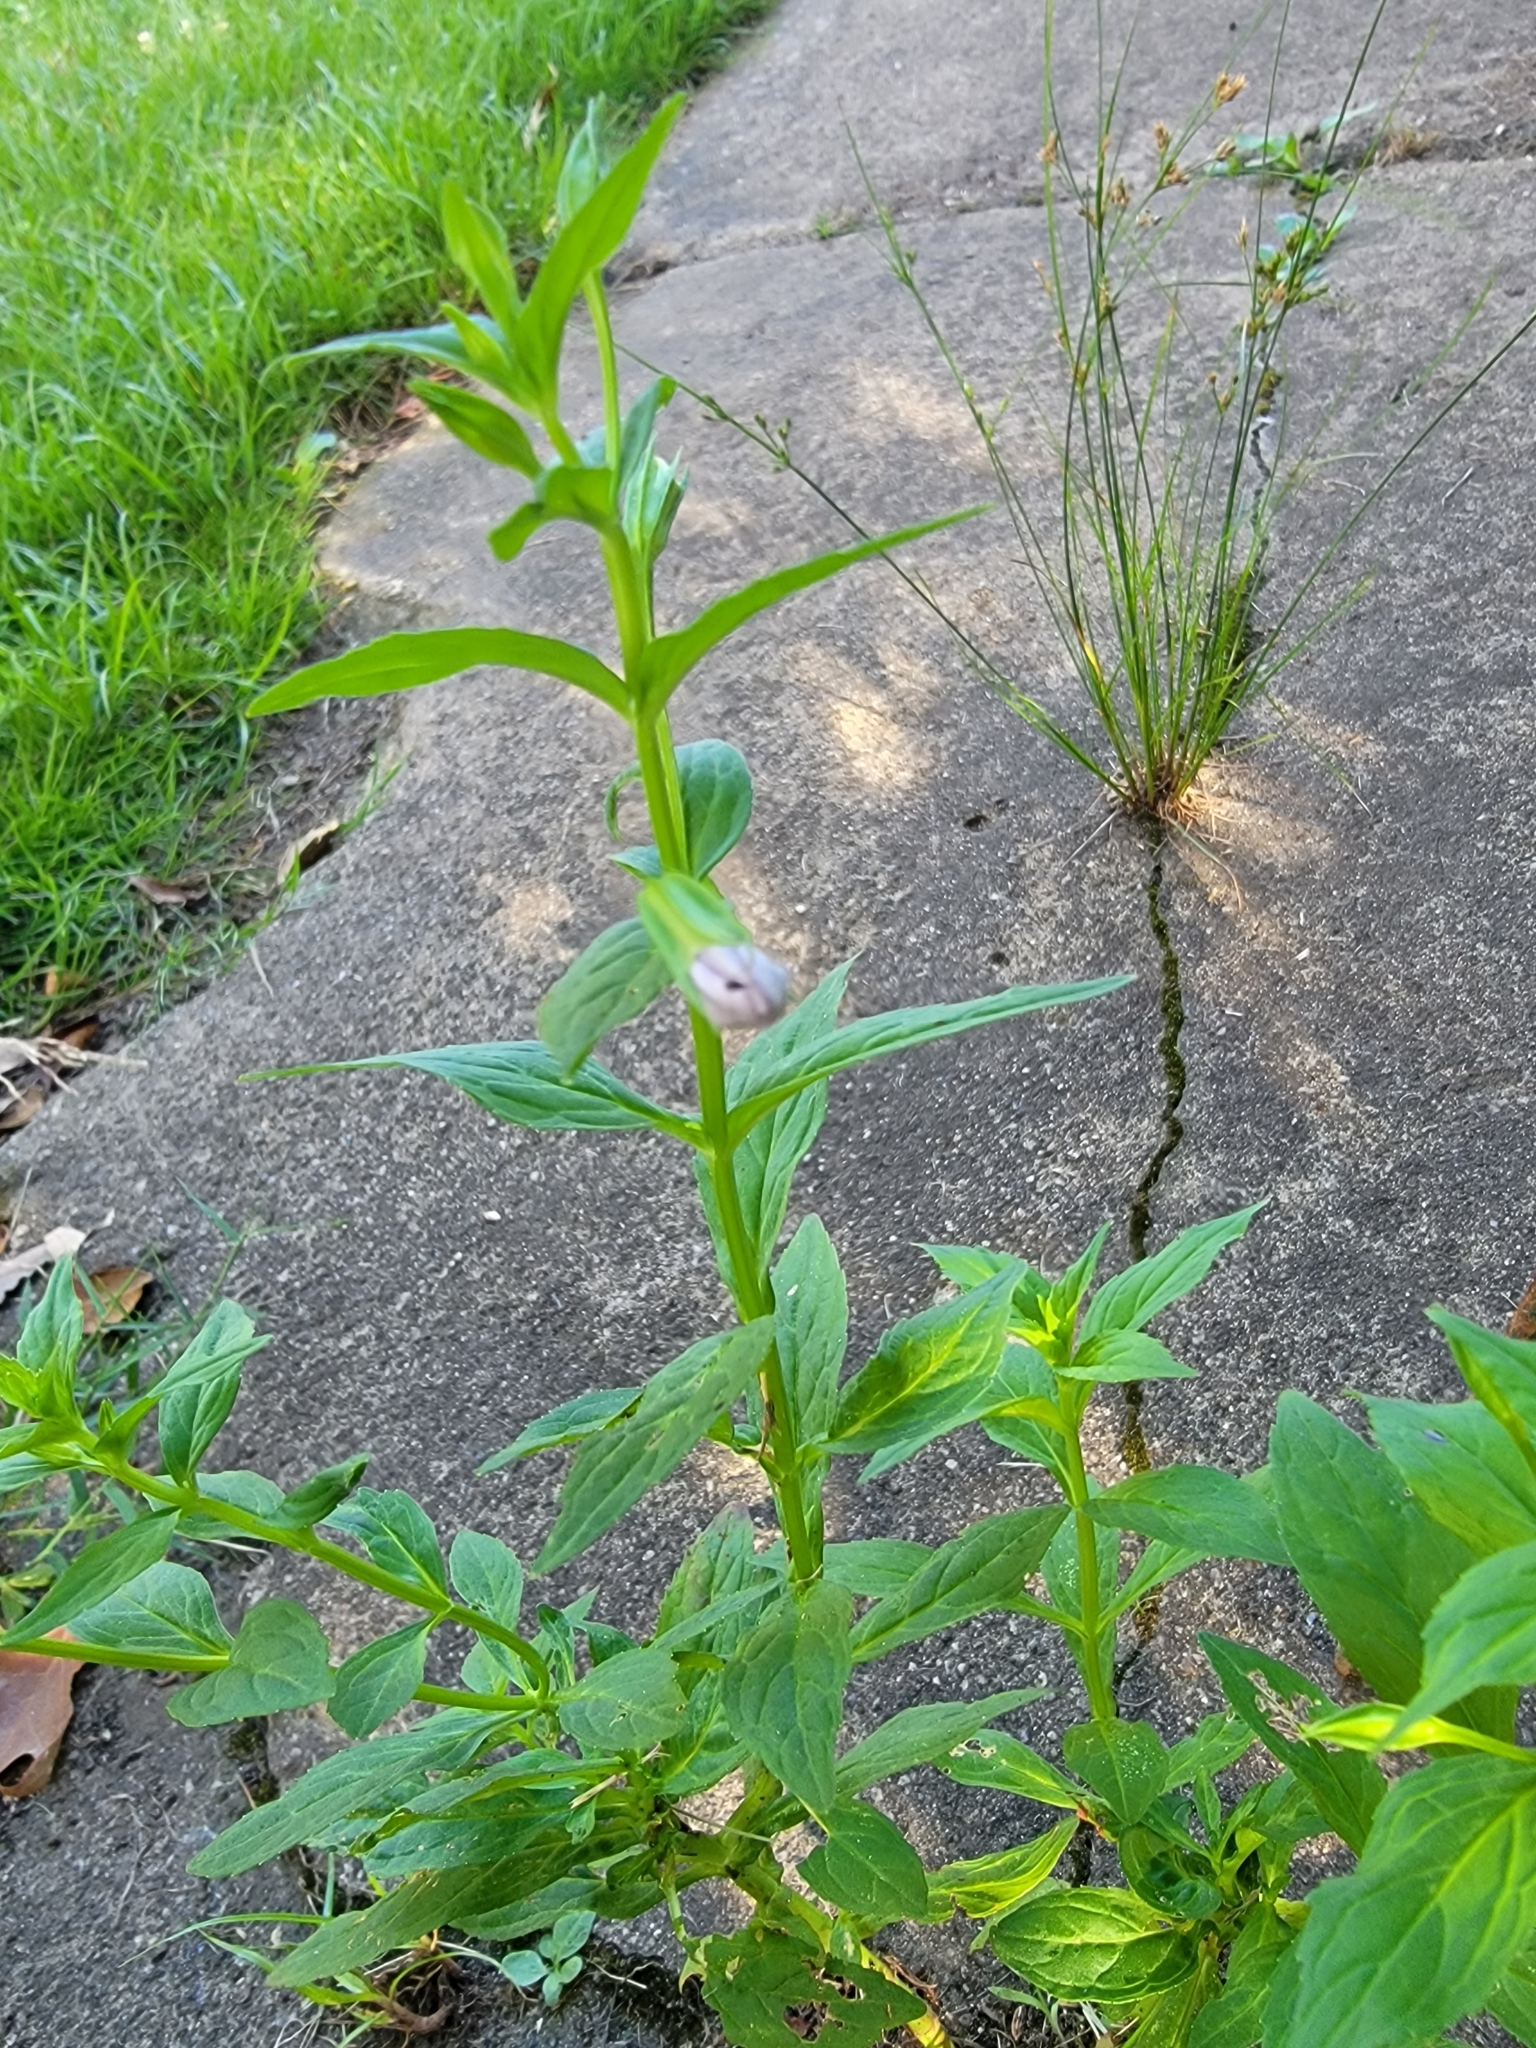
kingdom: Plantae
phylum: Tracheophyta
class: Magnoliopsida
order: Lamiales
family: Phrymaceae
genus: Mimulus
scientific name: Mimulus ringens
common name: Allegheny monkeyflower
